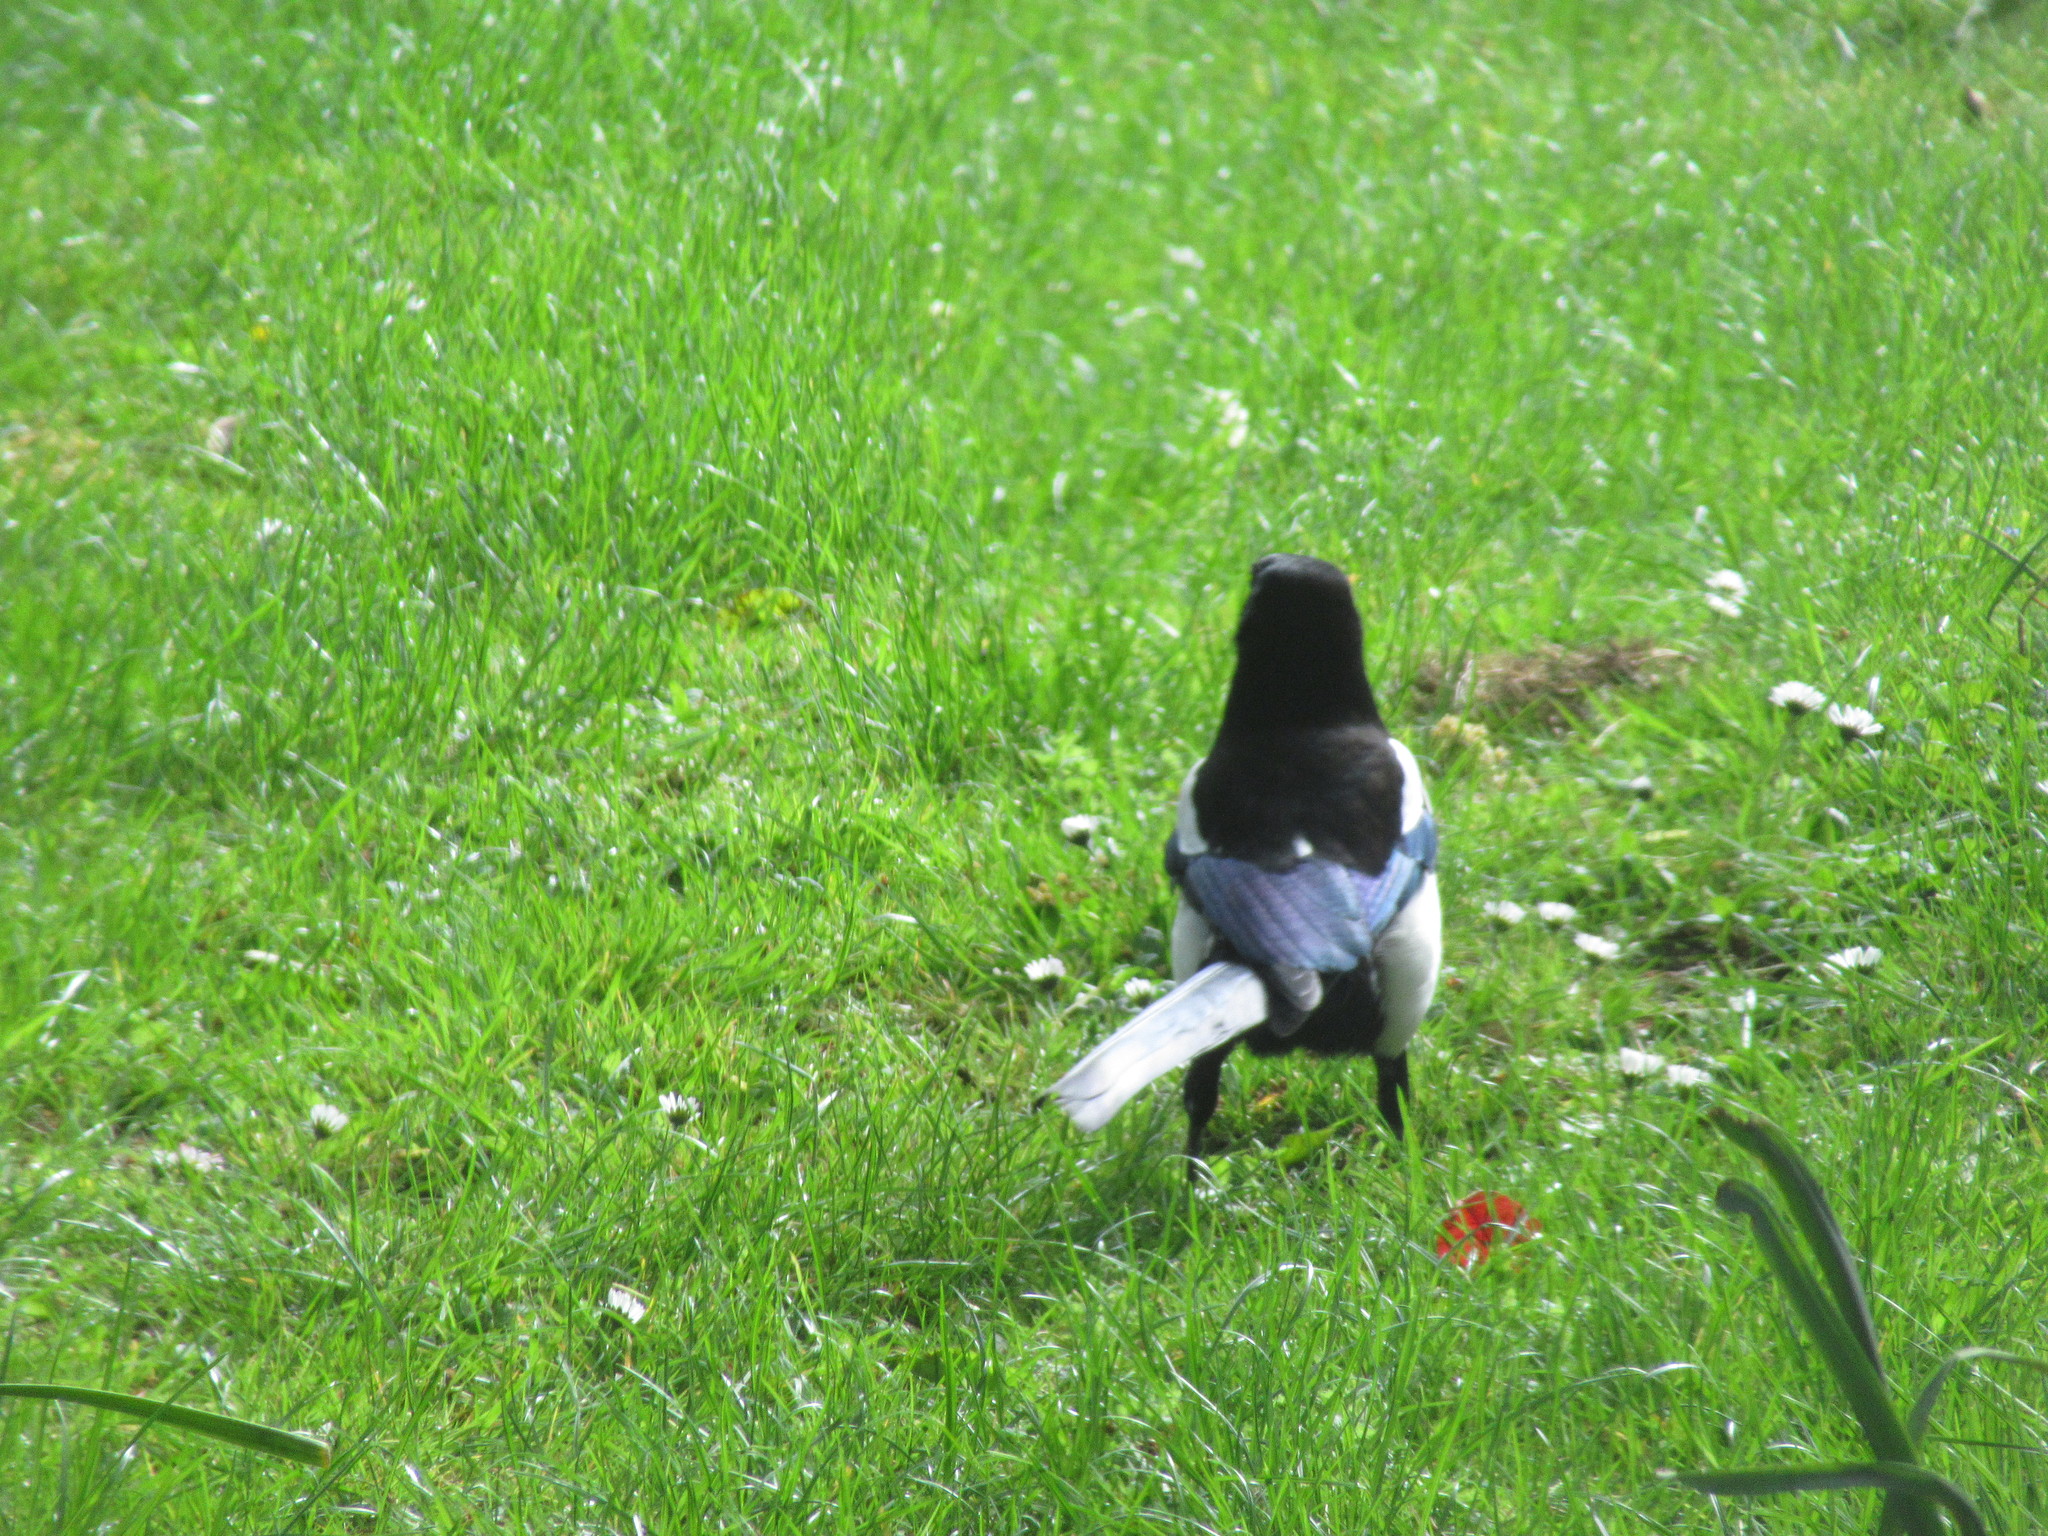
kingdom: Animalia
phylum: Chordata
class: Aves
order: Passeriformes
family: Corvidae
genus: Pica
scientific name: Pica pica
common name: Eurasian magpie
